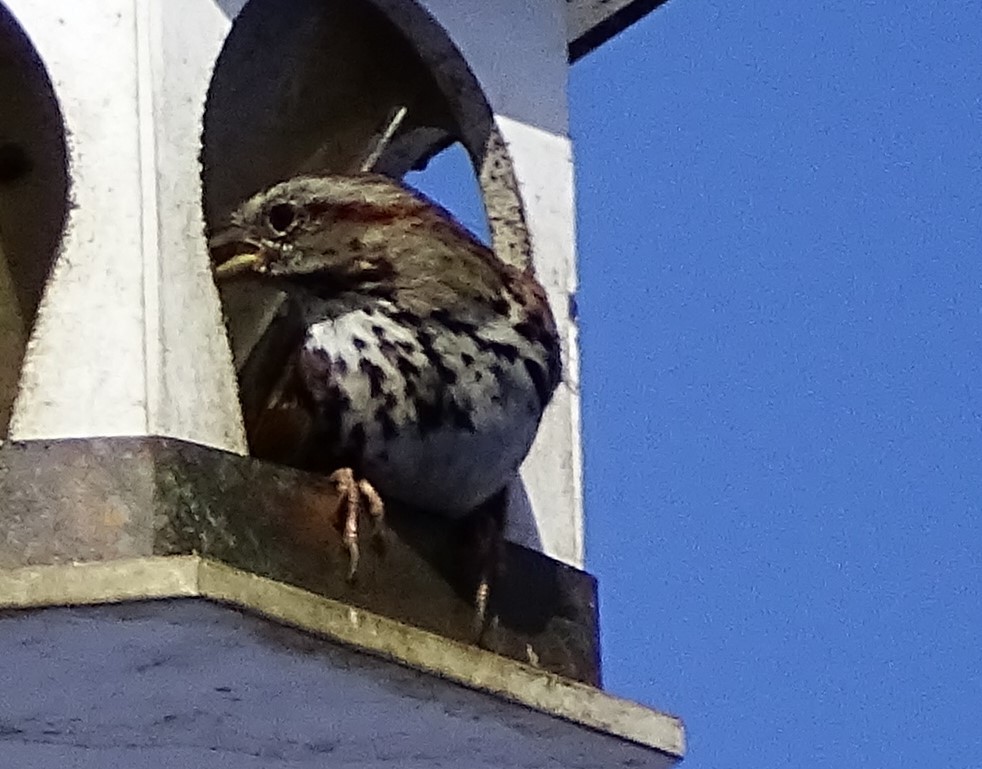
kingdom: Animalia
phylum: Chordata
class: Aves
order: Passeriformes
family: Passerellidae
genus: Melospiza
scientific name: Melospiza melodia
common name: Song sparrow
